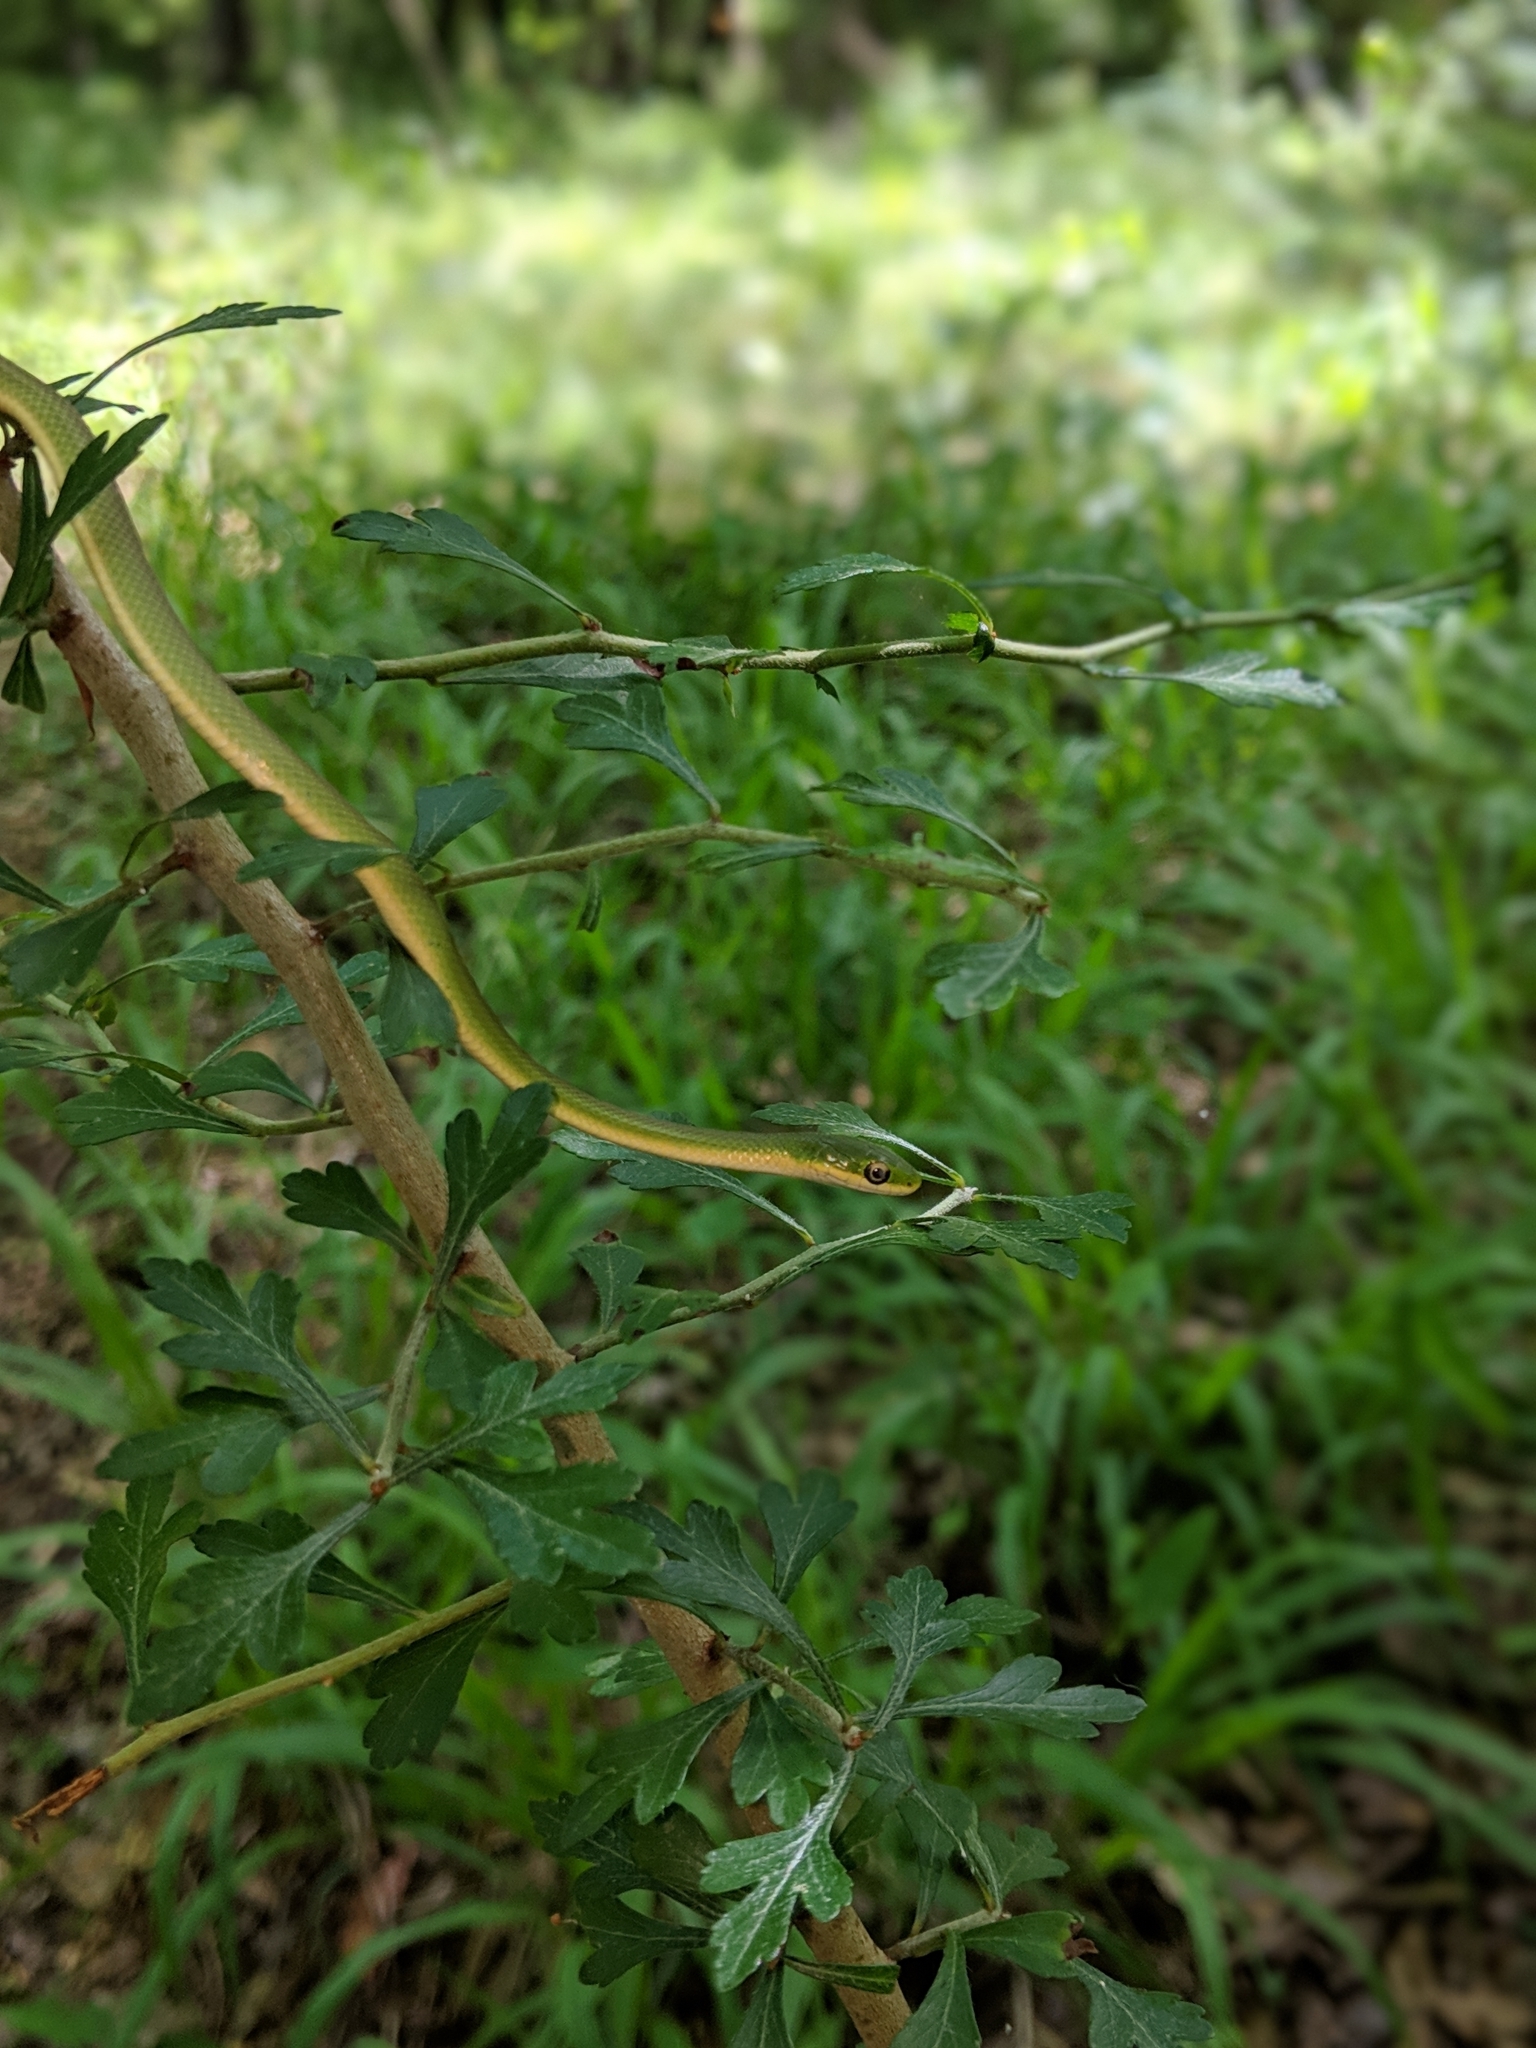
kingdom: Animalia
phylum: Chordata
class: Squamata
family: Colubridae
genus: Opheodrys
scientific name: Opheodrys aestivus
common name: Rough greensnake
